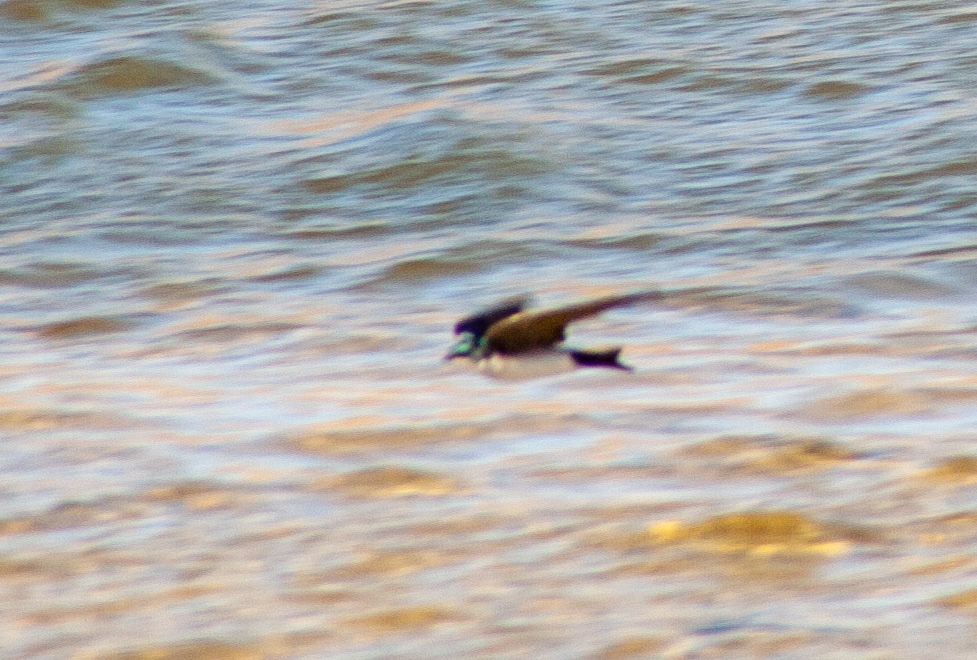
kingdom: Animalia
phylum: Chordata
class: Aves
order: Passeriformes
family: Hirundinidae
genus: Tachycineta
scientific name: Tachycineta bicolor
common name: Tree swallow
